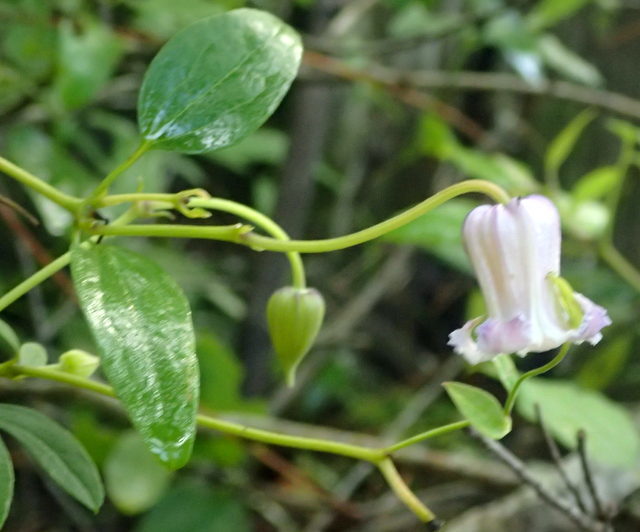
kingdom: Plantae
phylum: Tracheophyta
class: Magnoliopsida
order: Ranunculales
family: Ranunculaceae
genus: Clematis
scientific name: Clematis crispa
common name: Curly clematis
